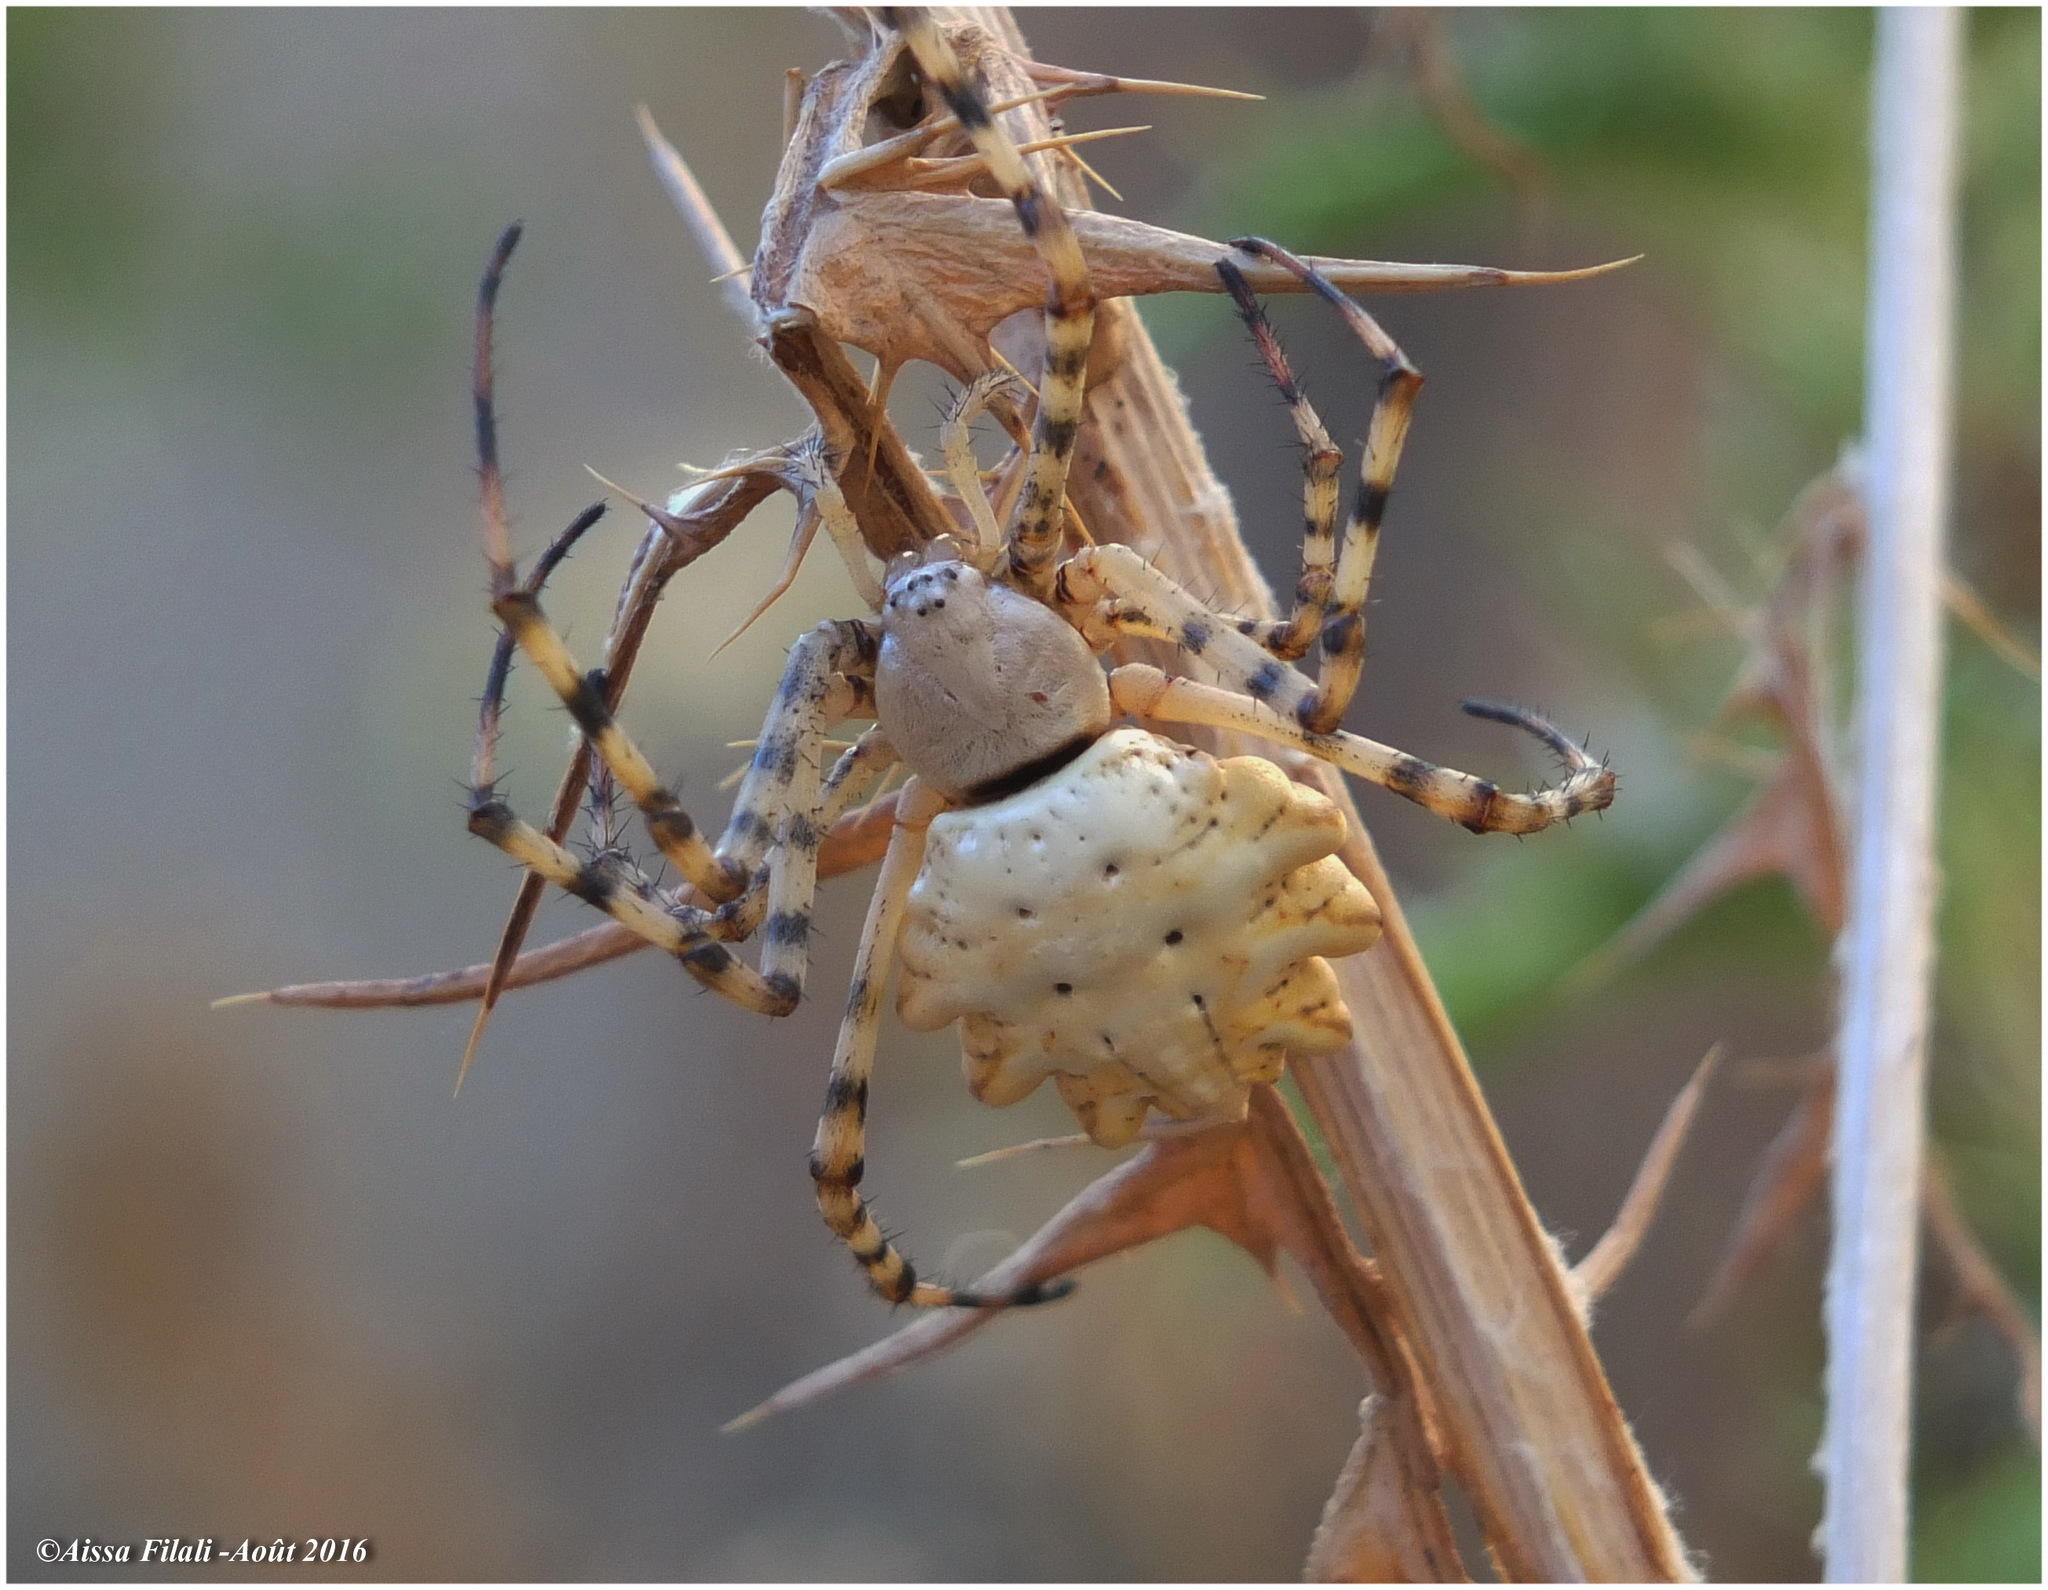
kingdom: Animalia
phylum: Arthropoda
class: Arachnida
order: Araneae
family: Araneidae
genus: Argiope
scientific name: Argiope lobata
